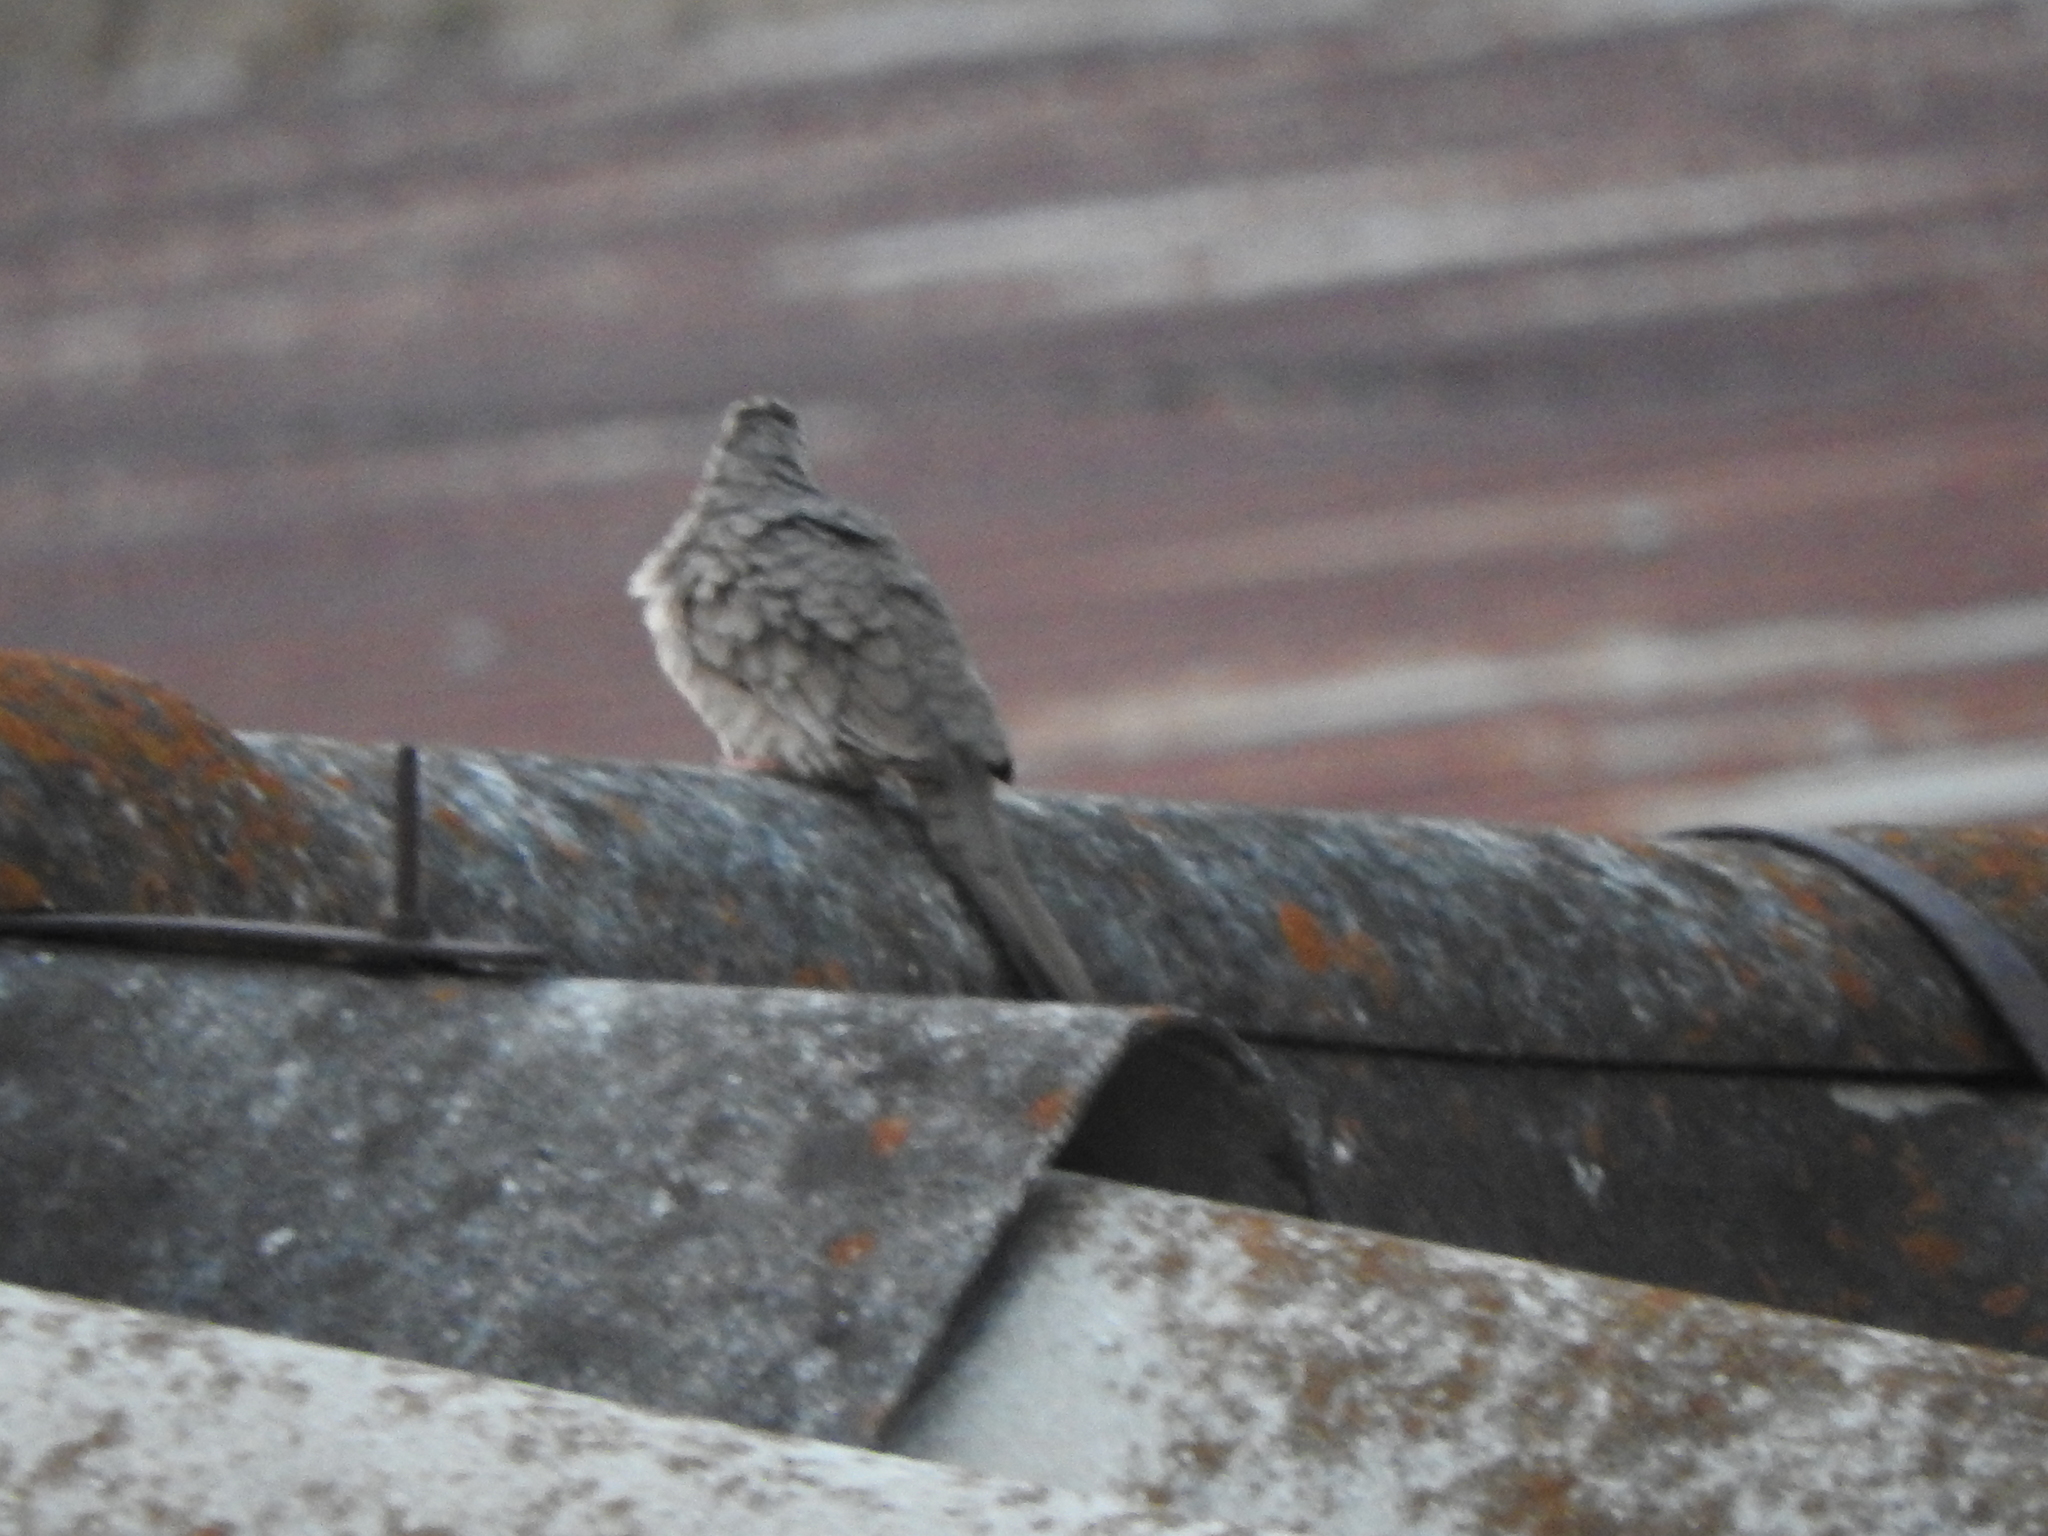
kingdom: Animalia
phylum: Chordata
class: Aves
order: Columbiformes
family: Columbidae
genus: Columbina
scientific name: Columbina inca
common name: Inca dove
